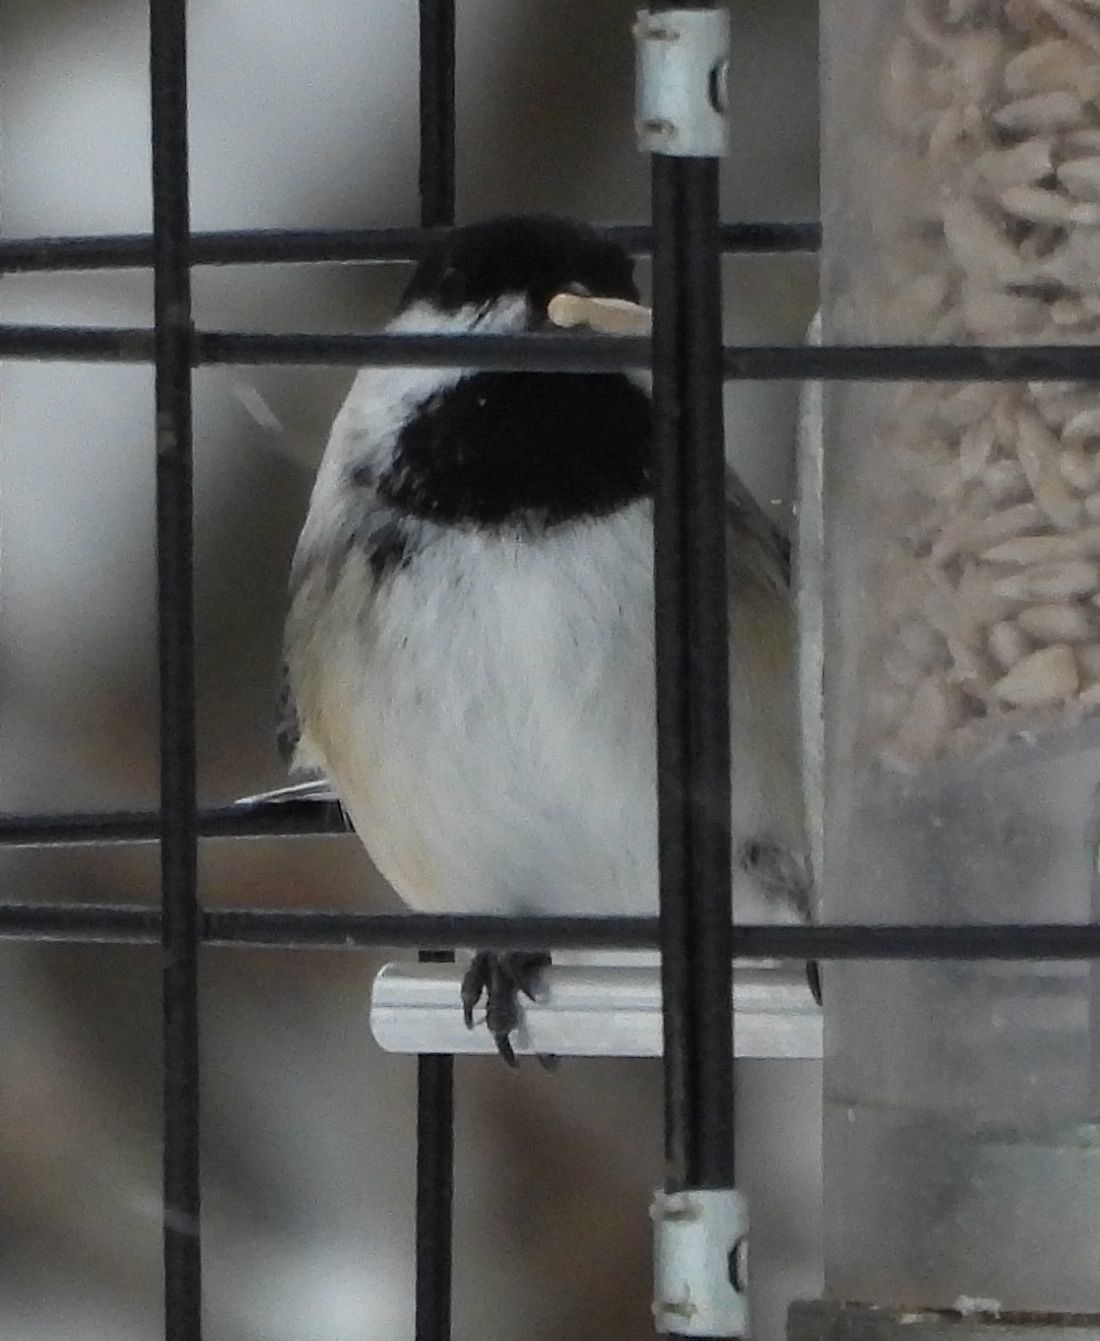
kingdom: Animalia
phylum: Chordata
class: Aves
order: Passeriformes
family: Paridae
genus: Poecile
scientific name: Poecile atricapillus
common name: Black-capped chickadee
